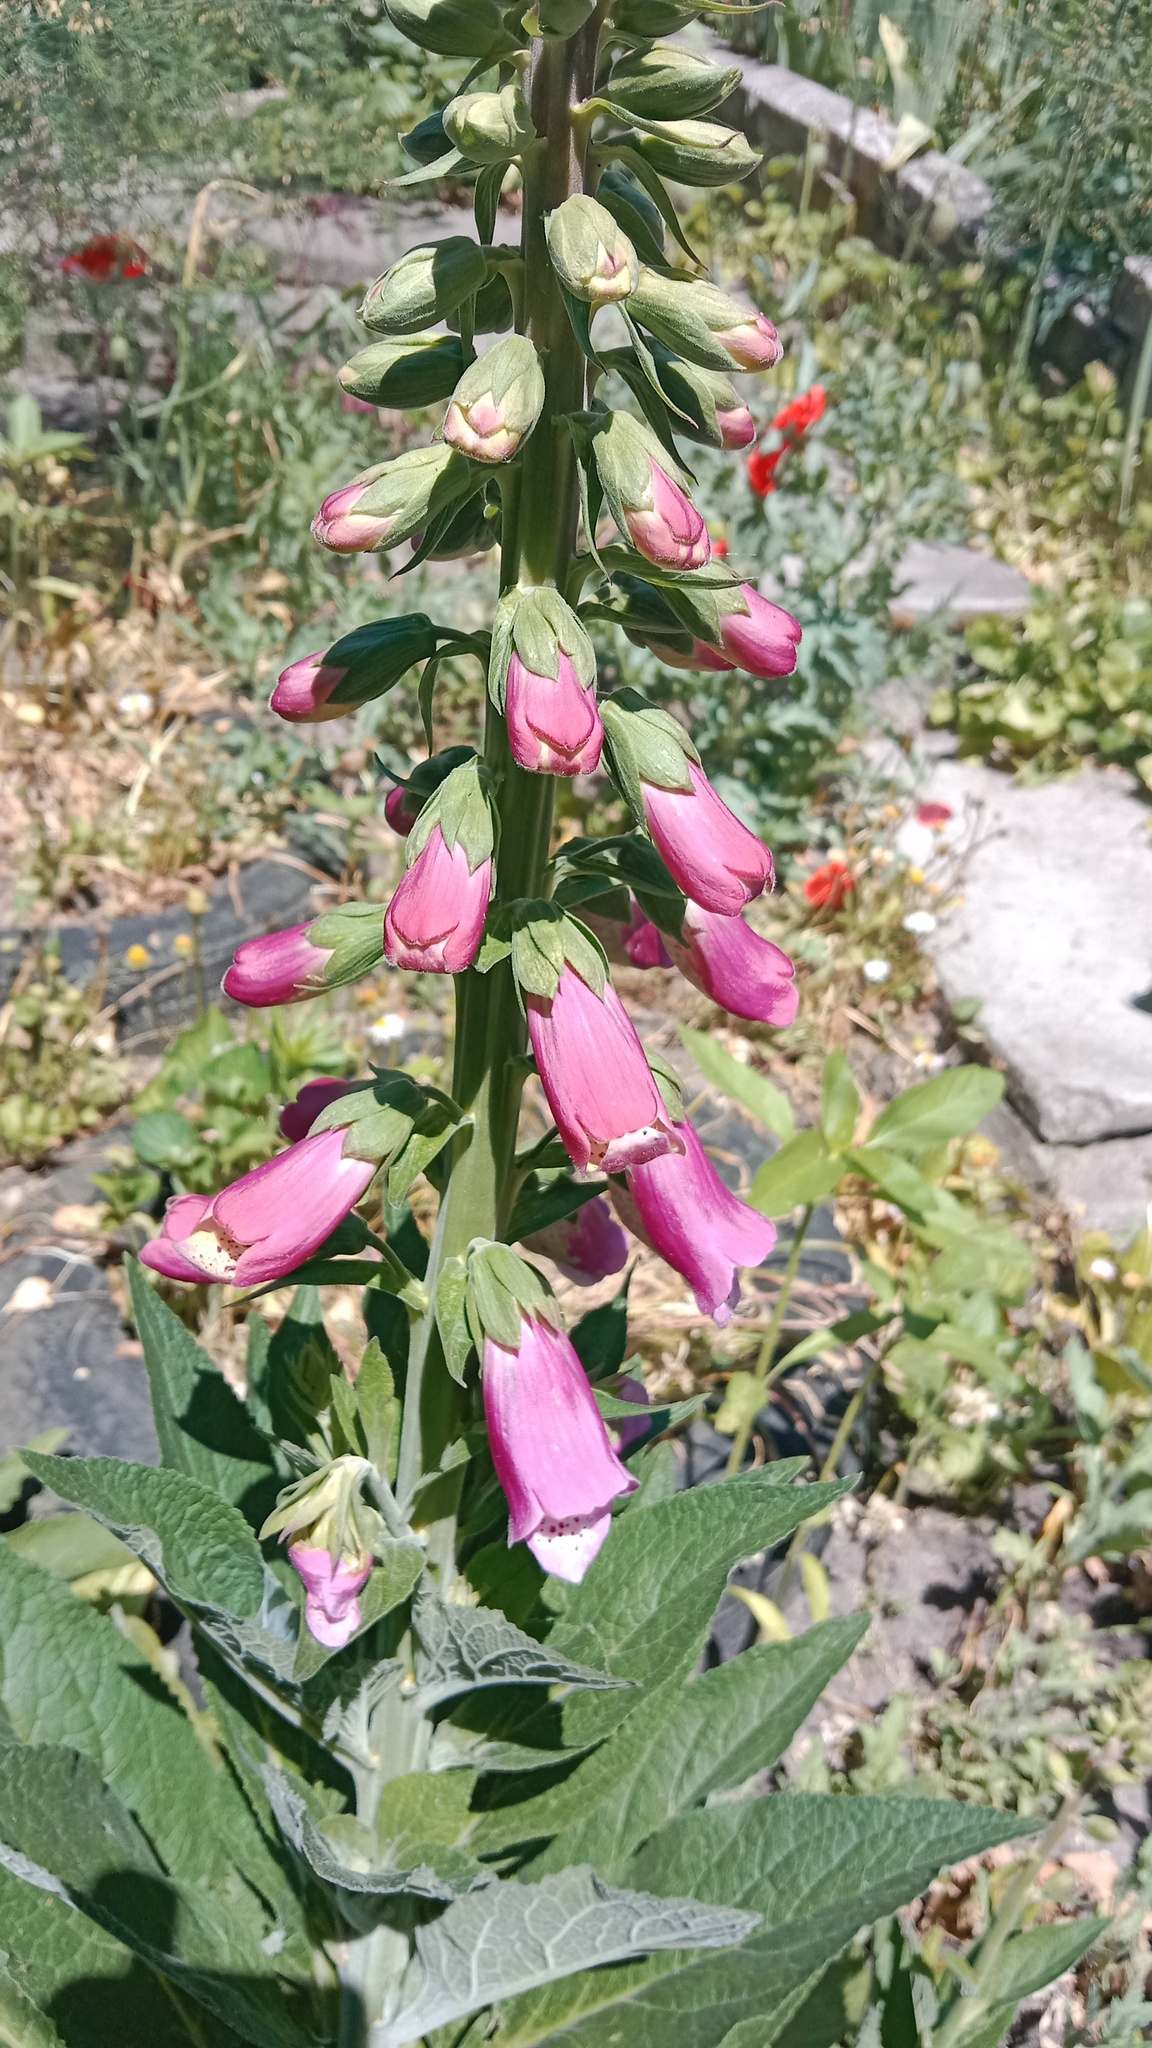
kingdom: Plantae
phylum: Tracheophyta
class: Magnoliopsida
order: Lamiales
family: Plantaginaceae
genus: Digitalis
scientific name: Digitalis purpurea
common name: Foxglove
